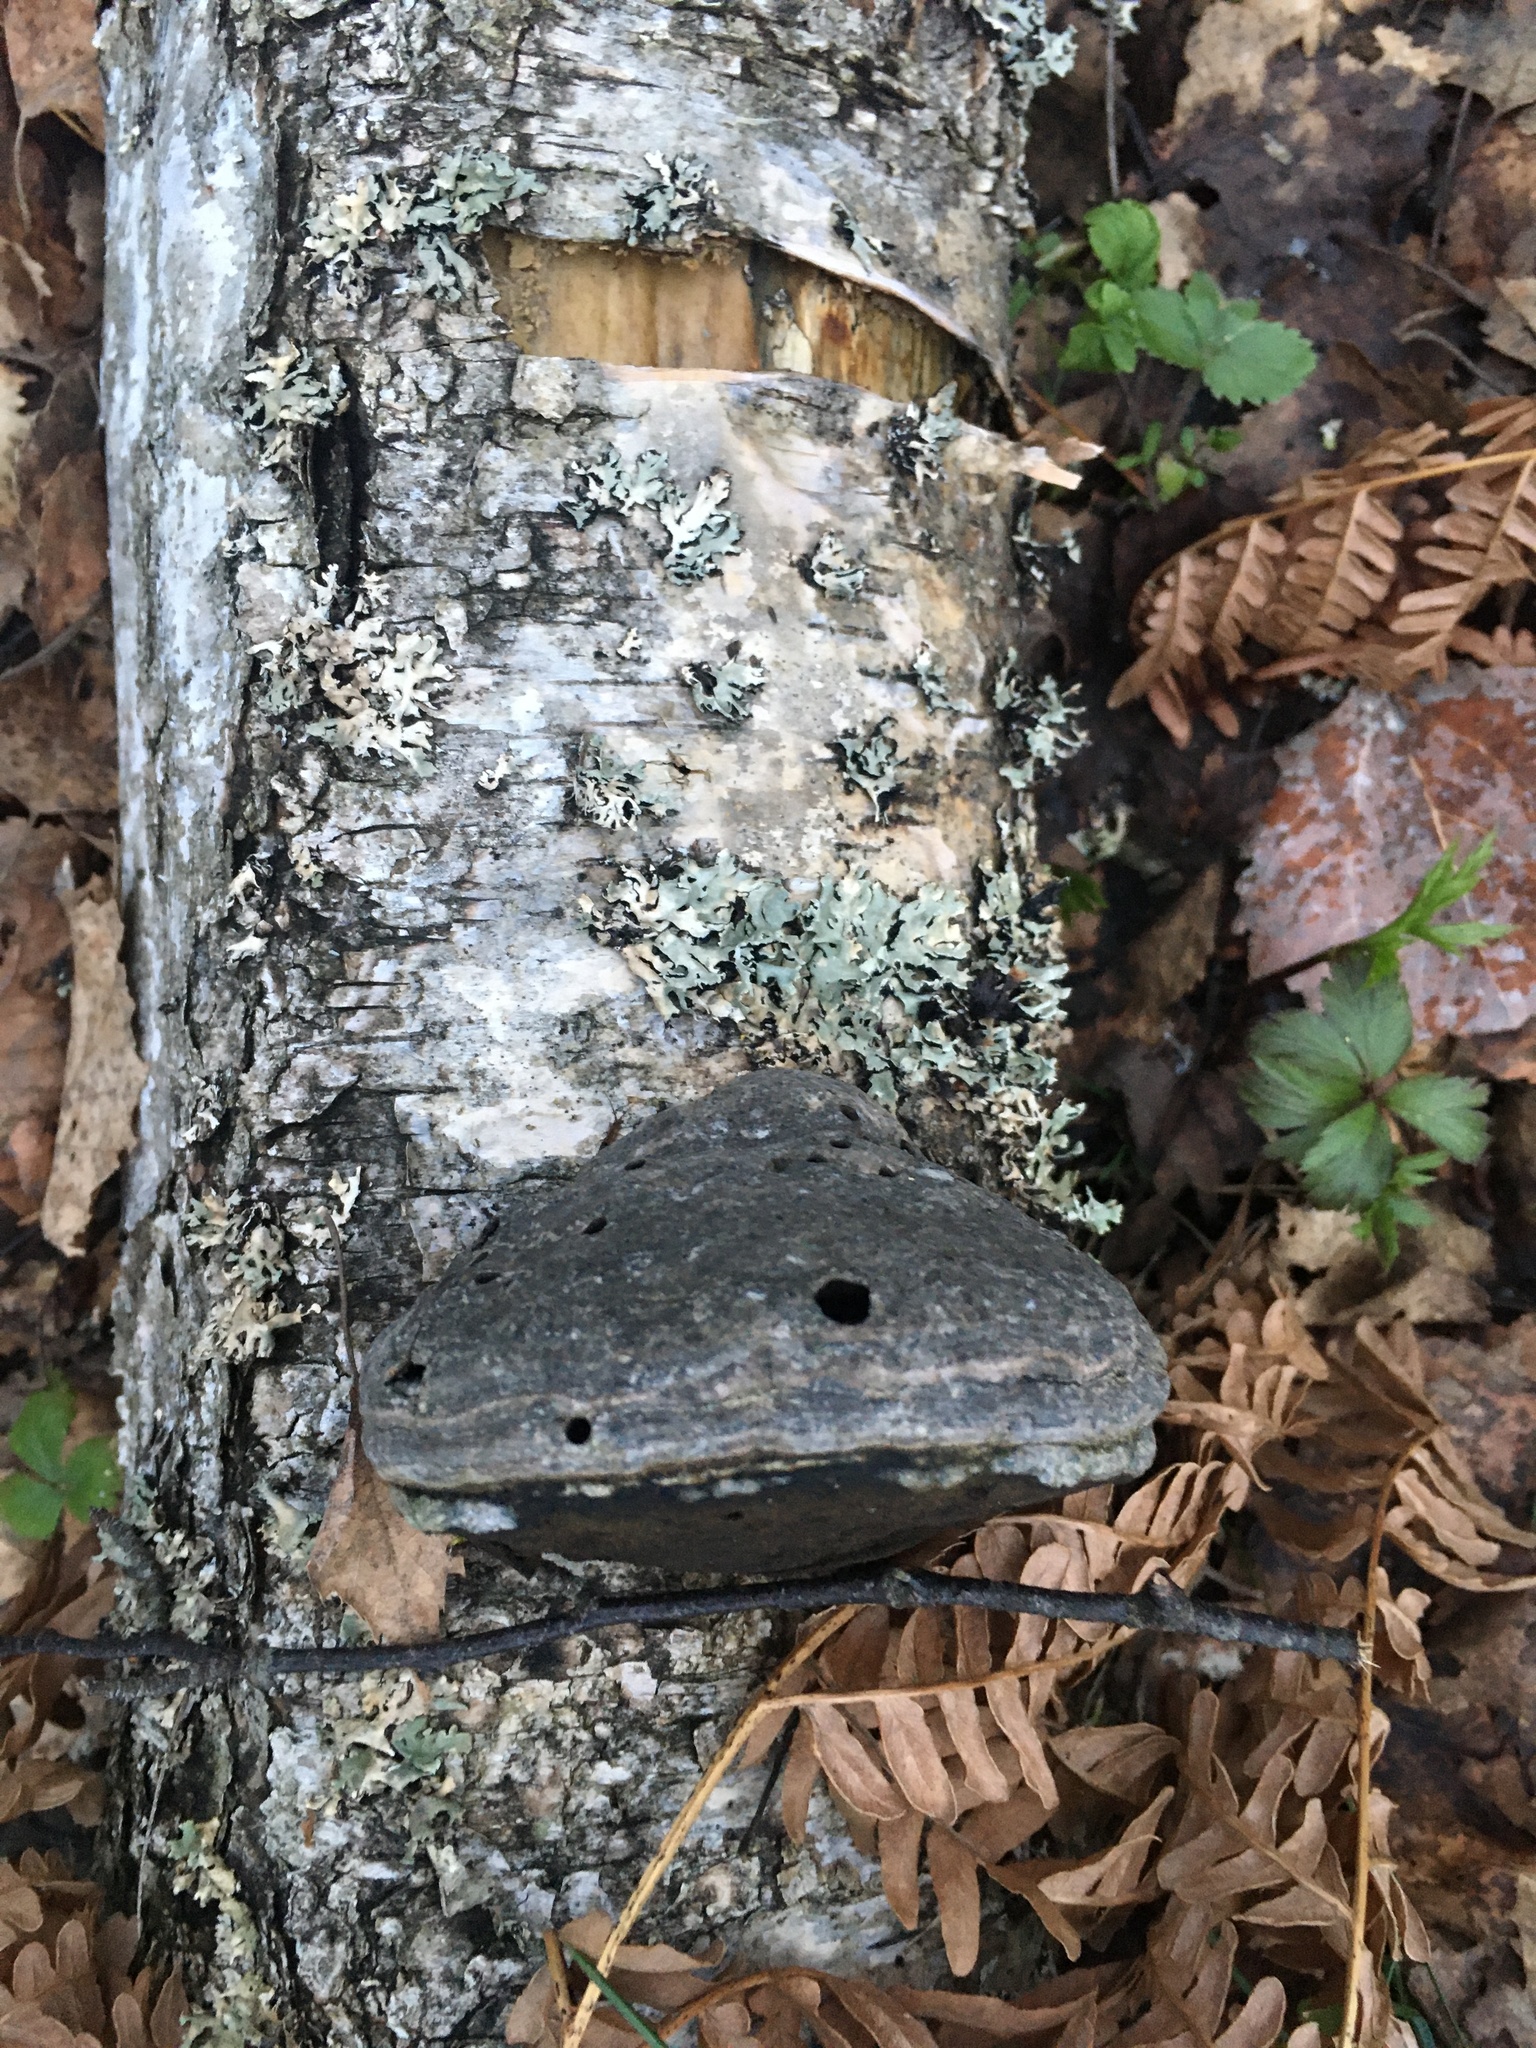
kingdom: Fungi
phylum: Basidiomycota
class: Agaricomycetes
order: Polyporales
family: Polyporaceae
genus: Fomes
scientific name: Fomes fomentarius
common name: Hoof fungus
